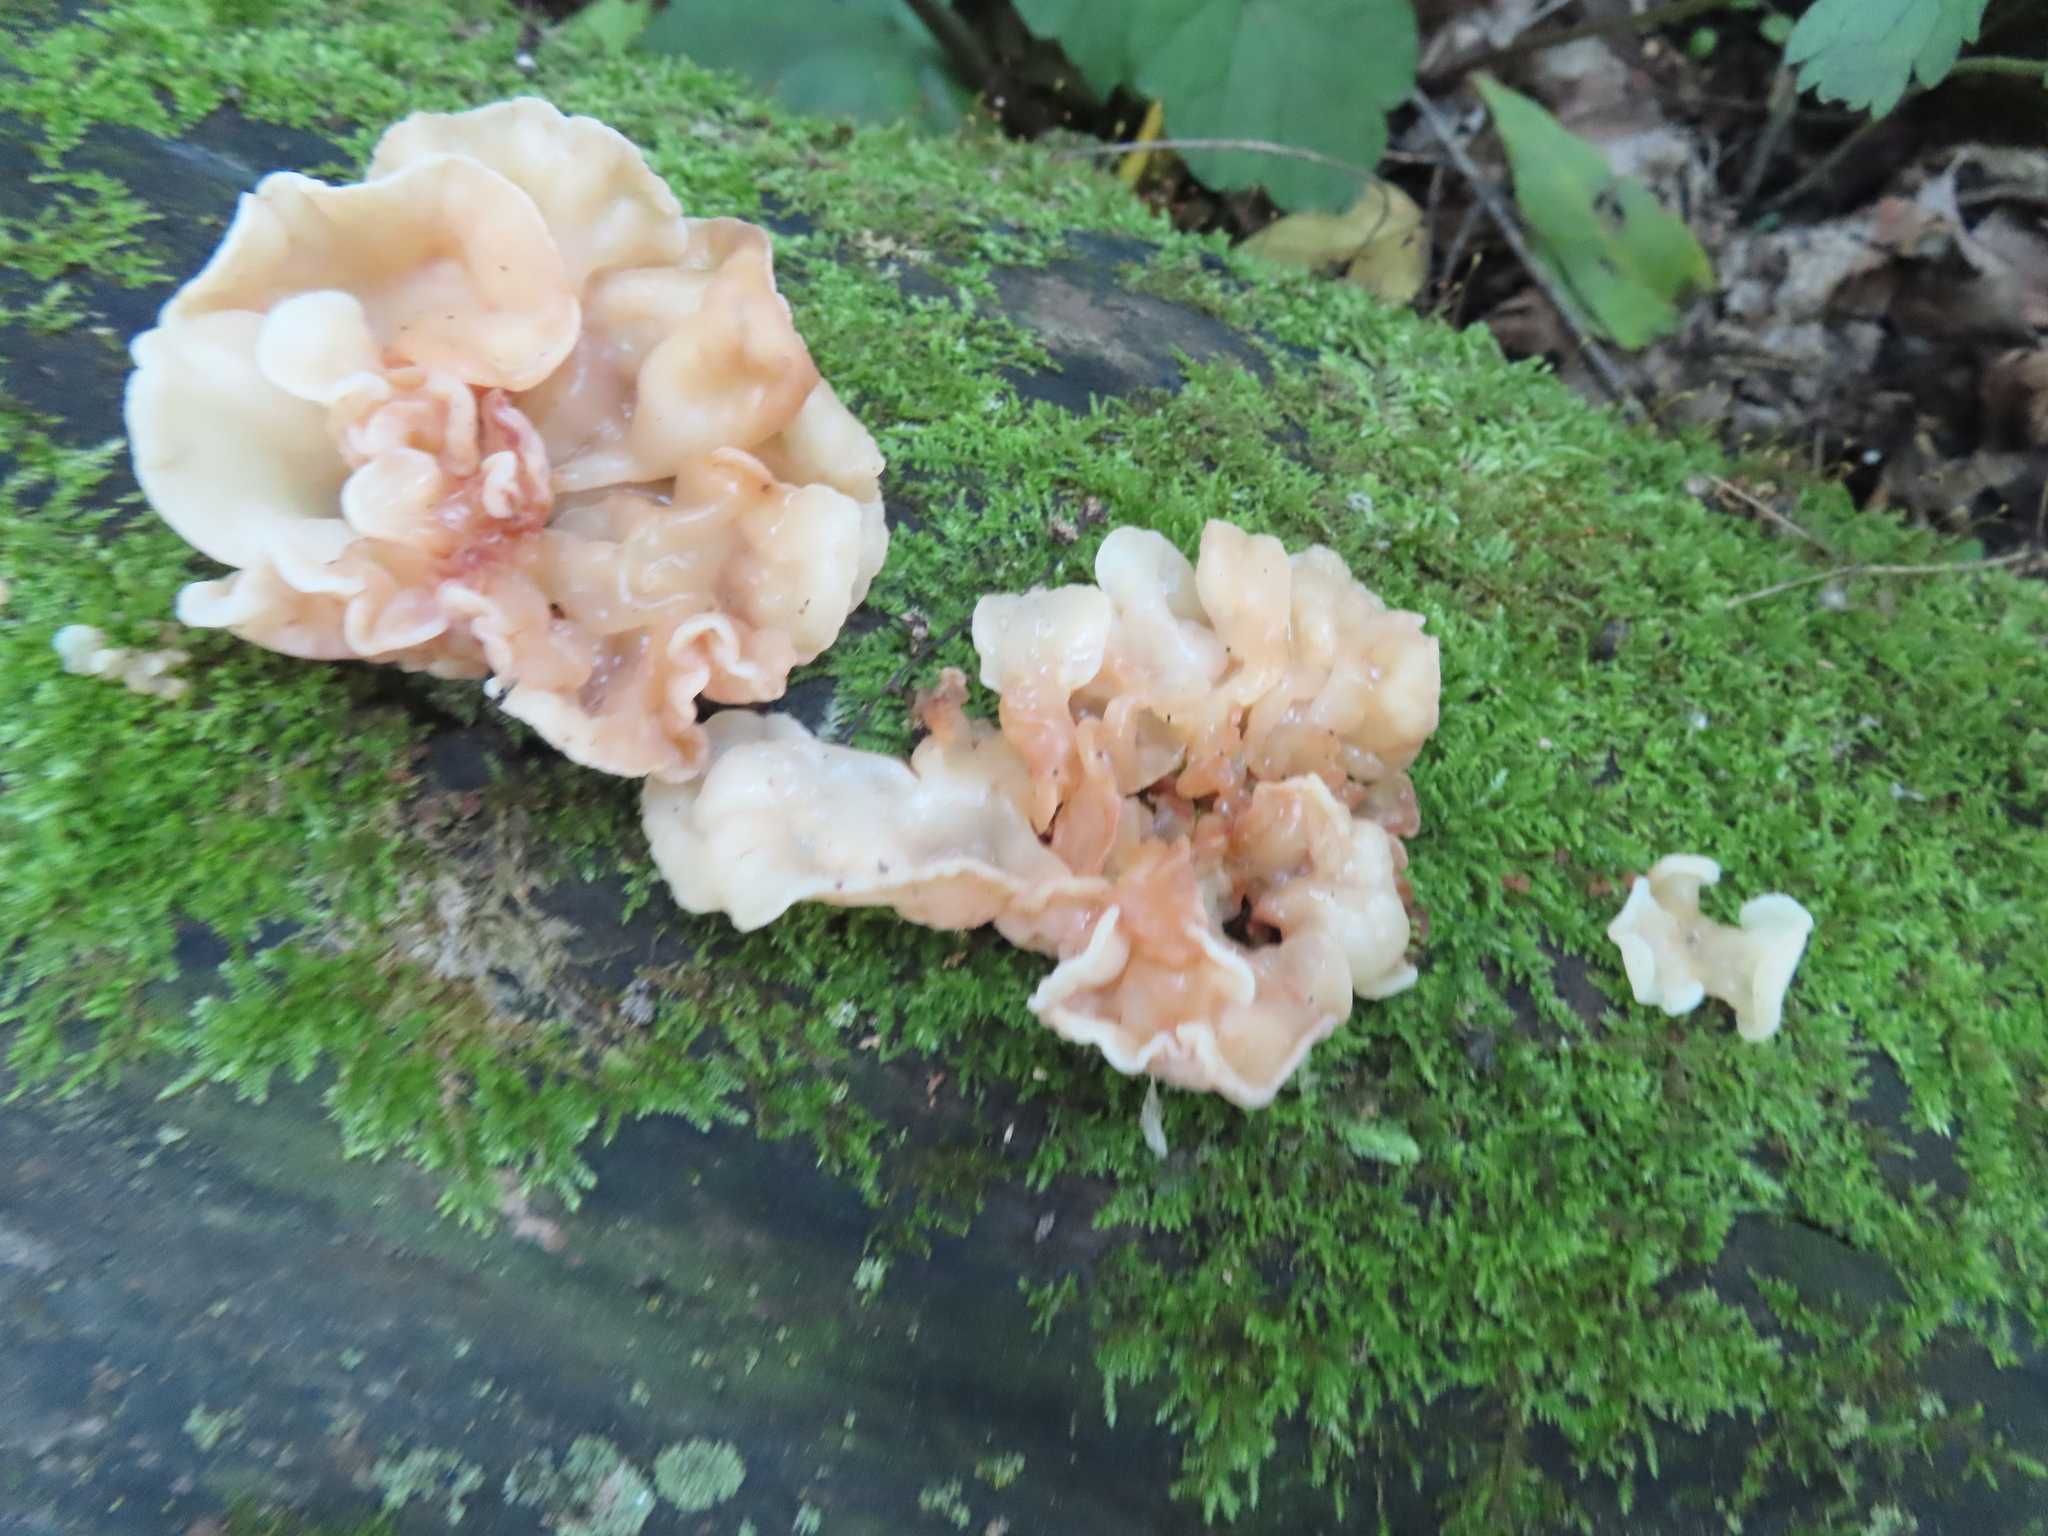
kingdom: Fungi
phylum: Basidiomycota
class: Agaricomycetes
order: Auriculariales
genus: Ductifera
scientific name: Ductifera pululahuana
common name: White jelly fungus
